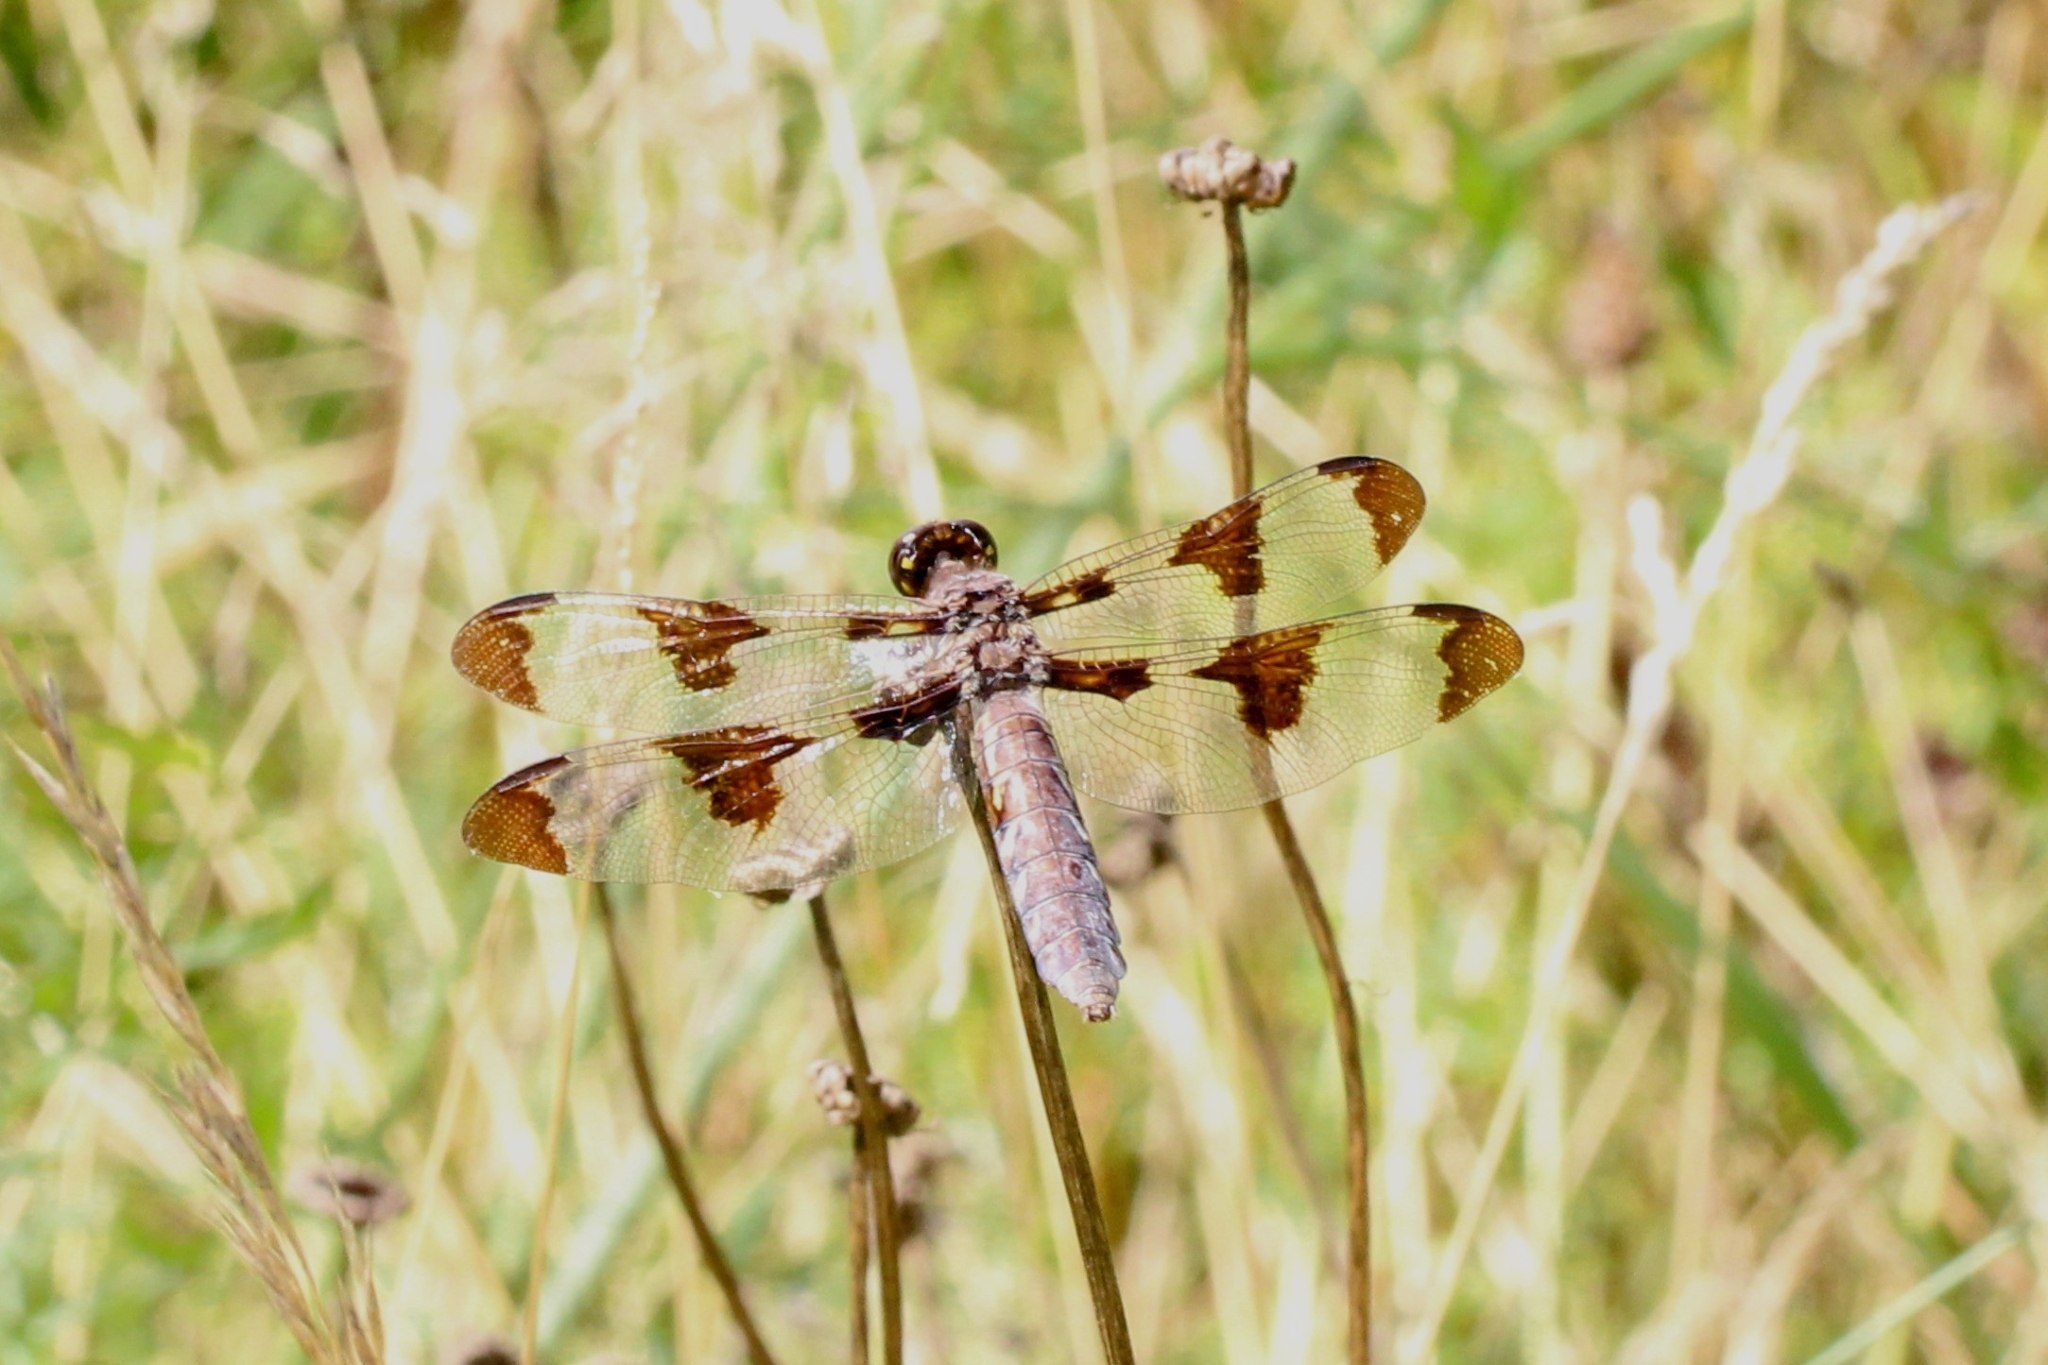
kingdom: Animalia
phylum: Arthropoda
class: Insecta
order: Odonata
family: Libellulidae
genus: Plathemis
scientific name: Plathemis lydia
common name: Common whitetail
